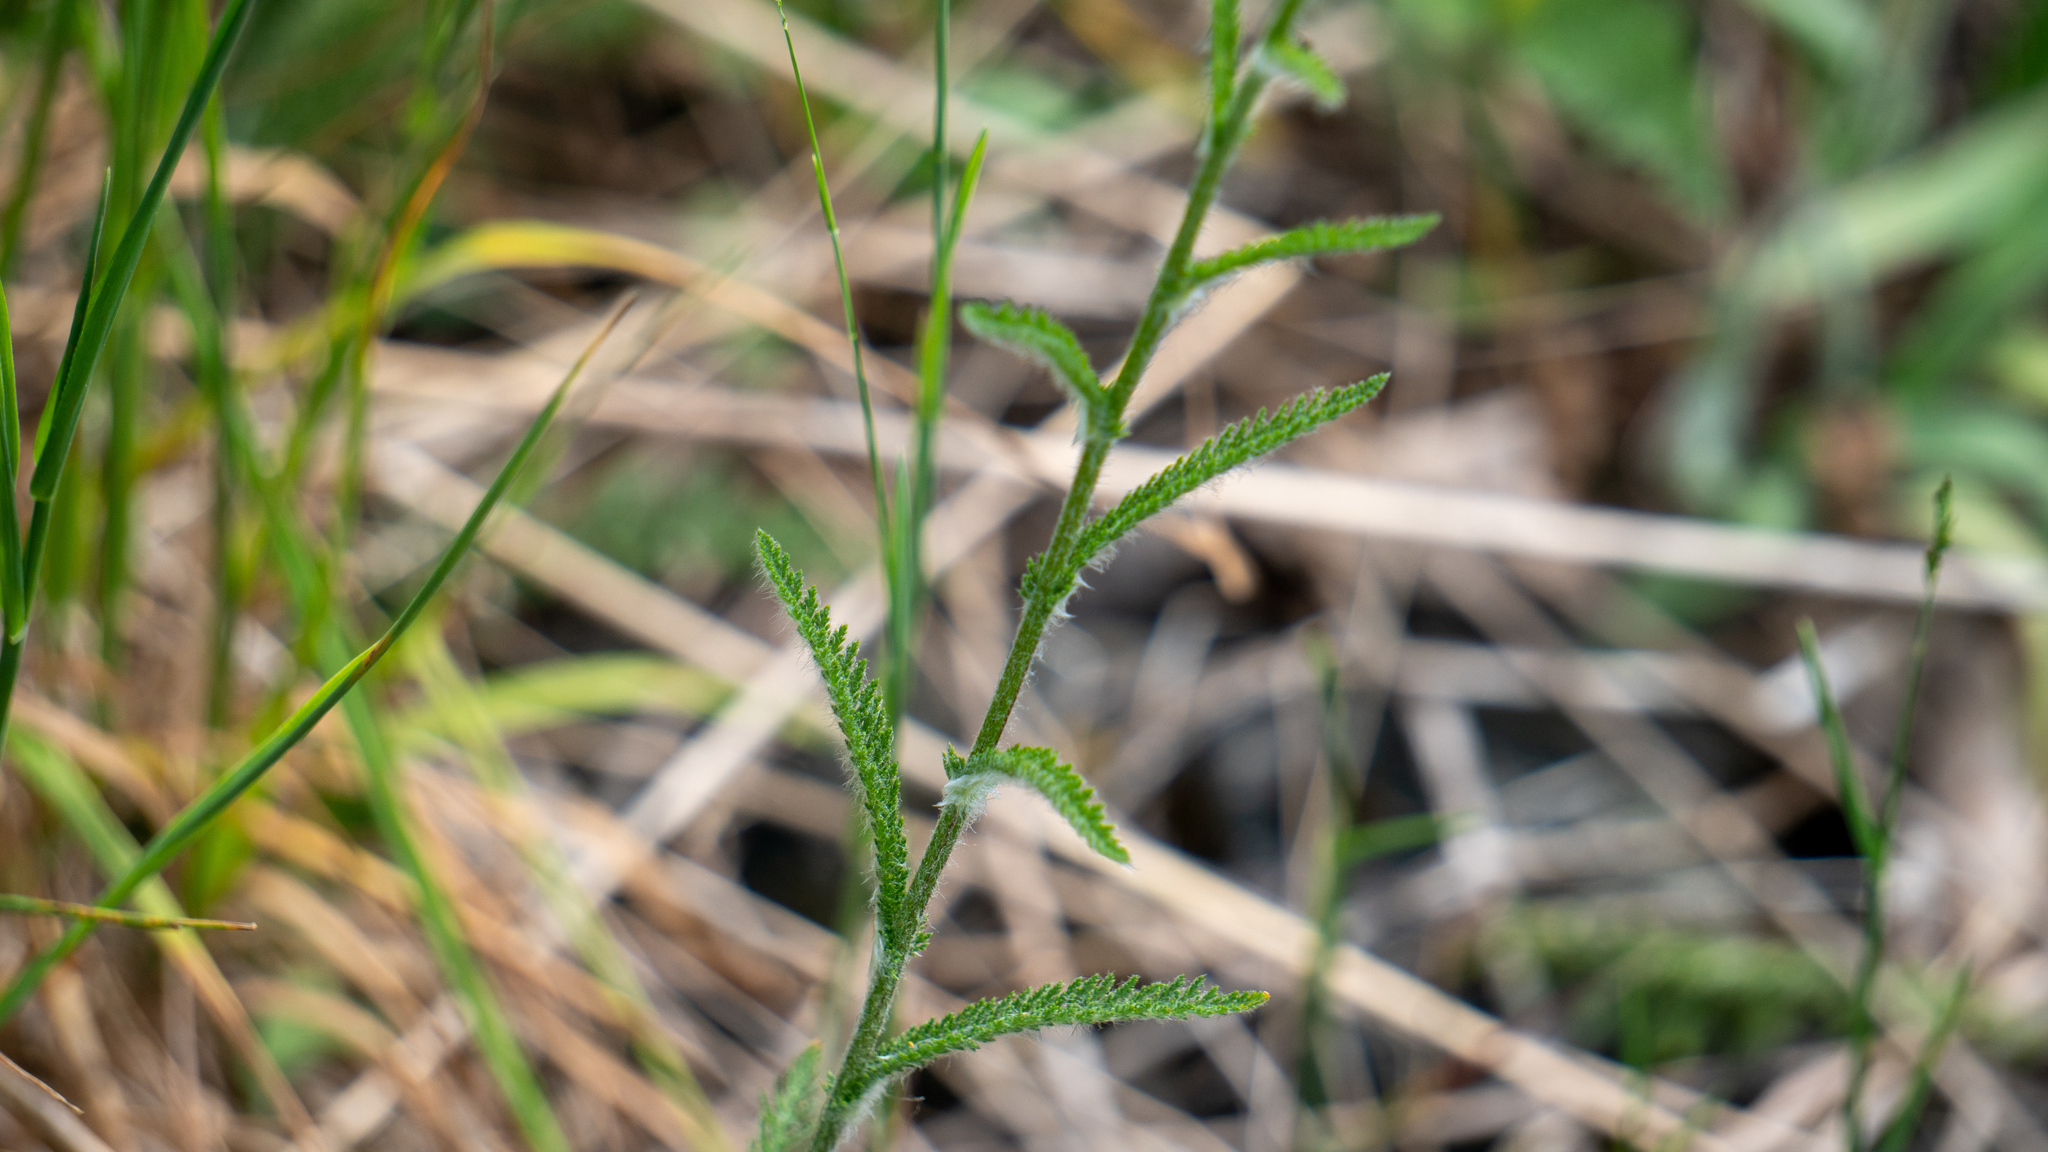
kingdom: Plantae
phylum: Tracheophyta
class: Magnoliopsida
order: Asterales
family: Asteraceae
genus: Achillea
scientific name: Achillea millefolium
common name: Yarrow
